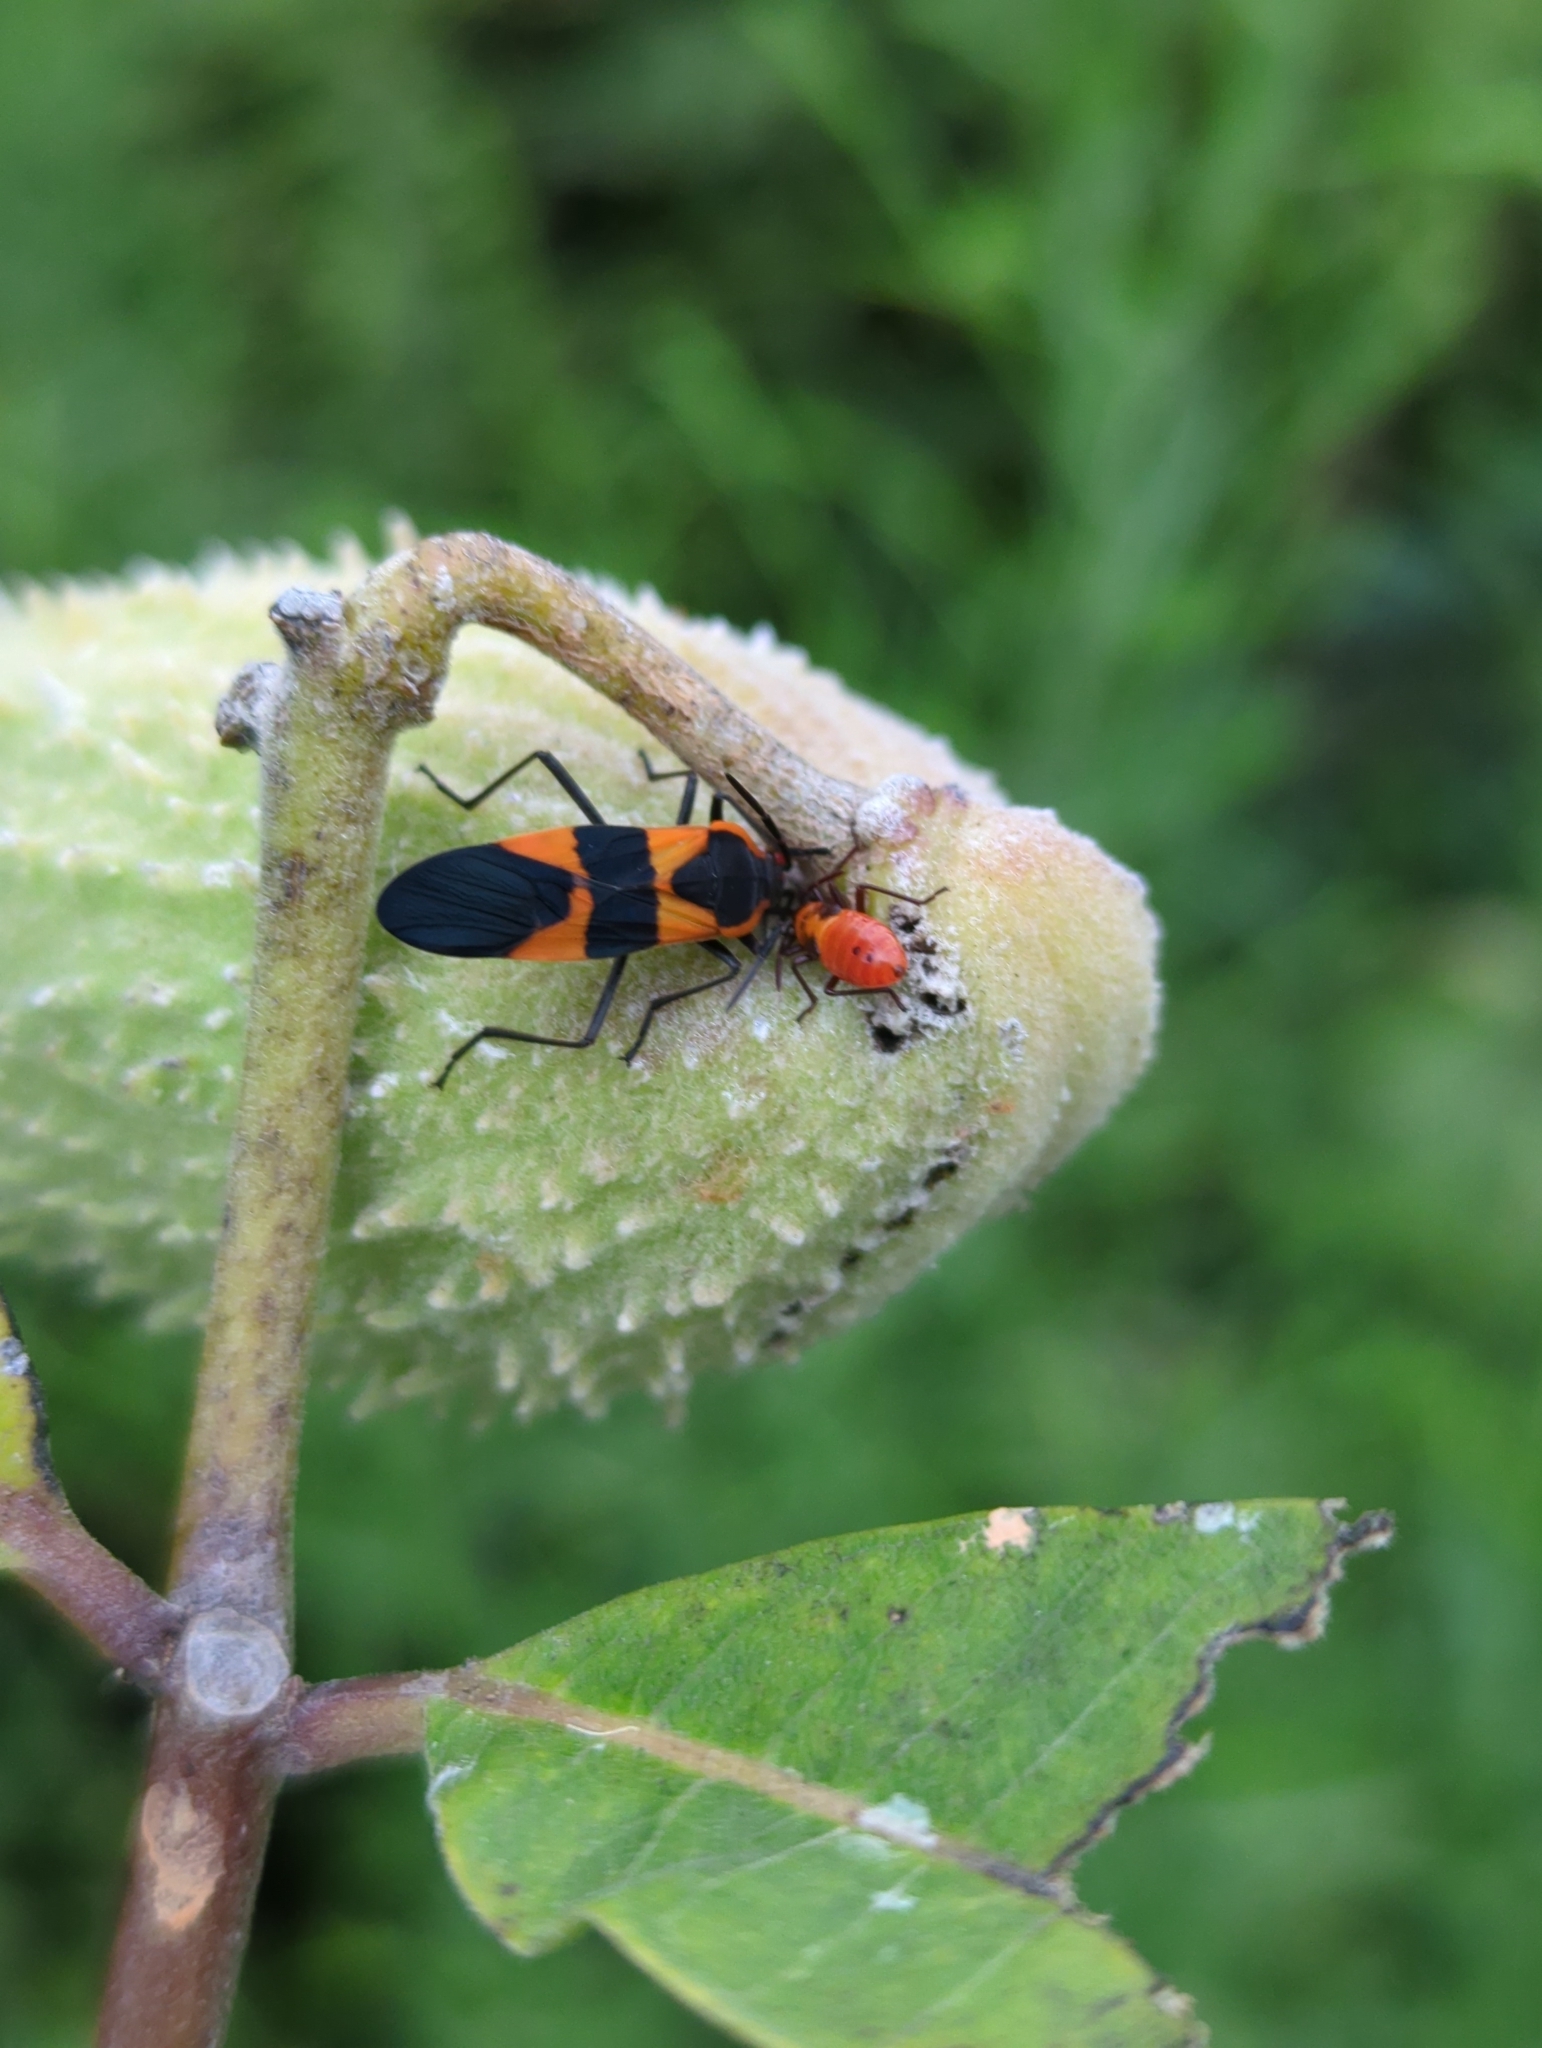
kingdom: Animalia
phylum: Arthropoda
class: Insecta
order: Hemiptera
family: Lygaeidae
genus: Oncopeltus
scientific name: Oncopeltus fasciatus
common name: Large milkweed bug
